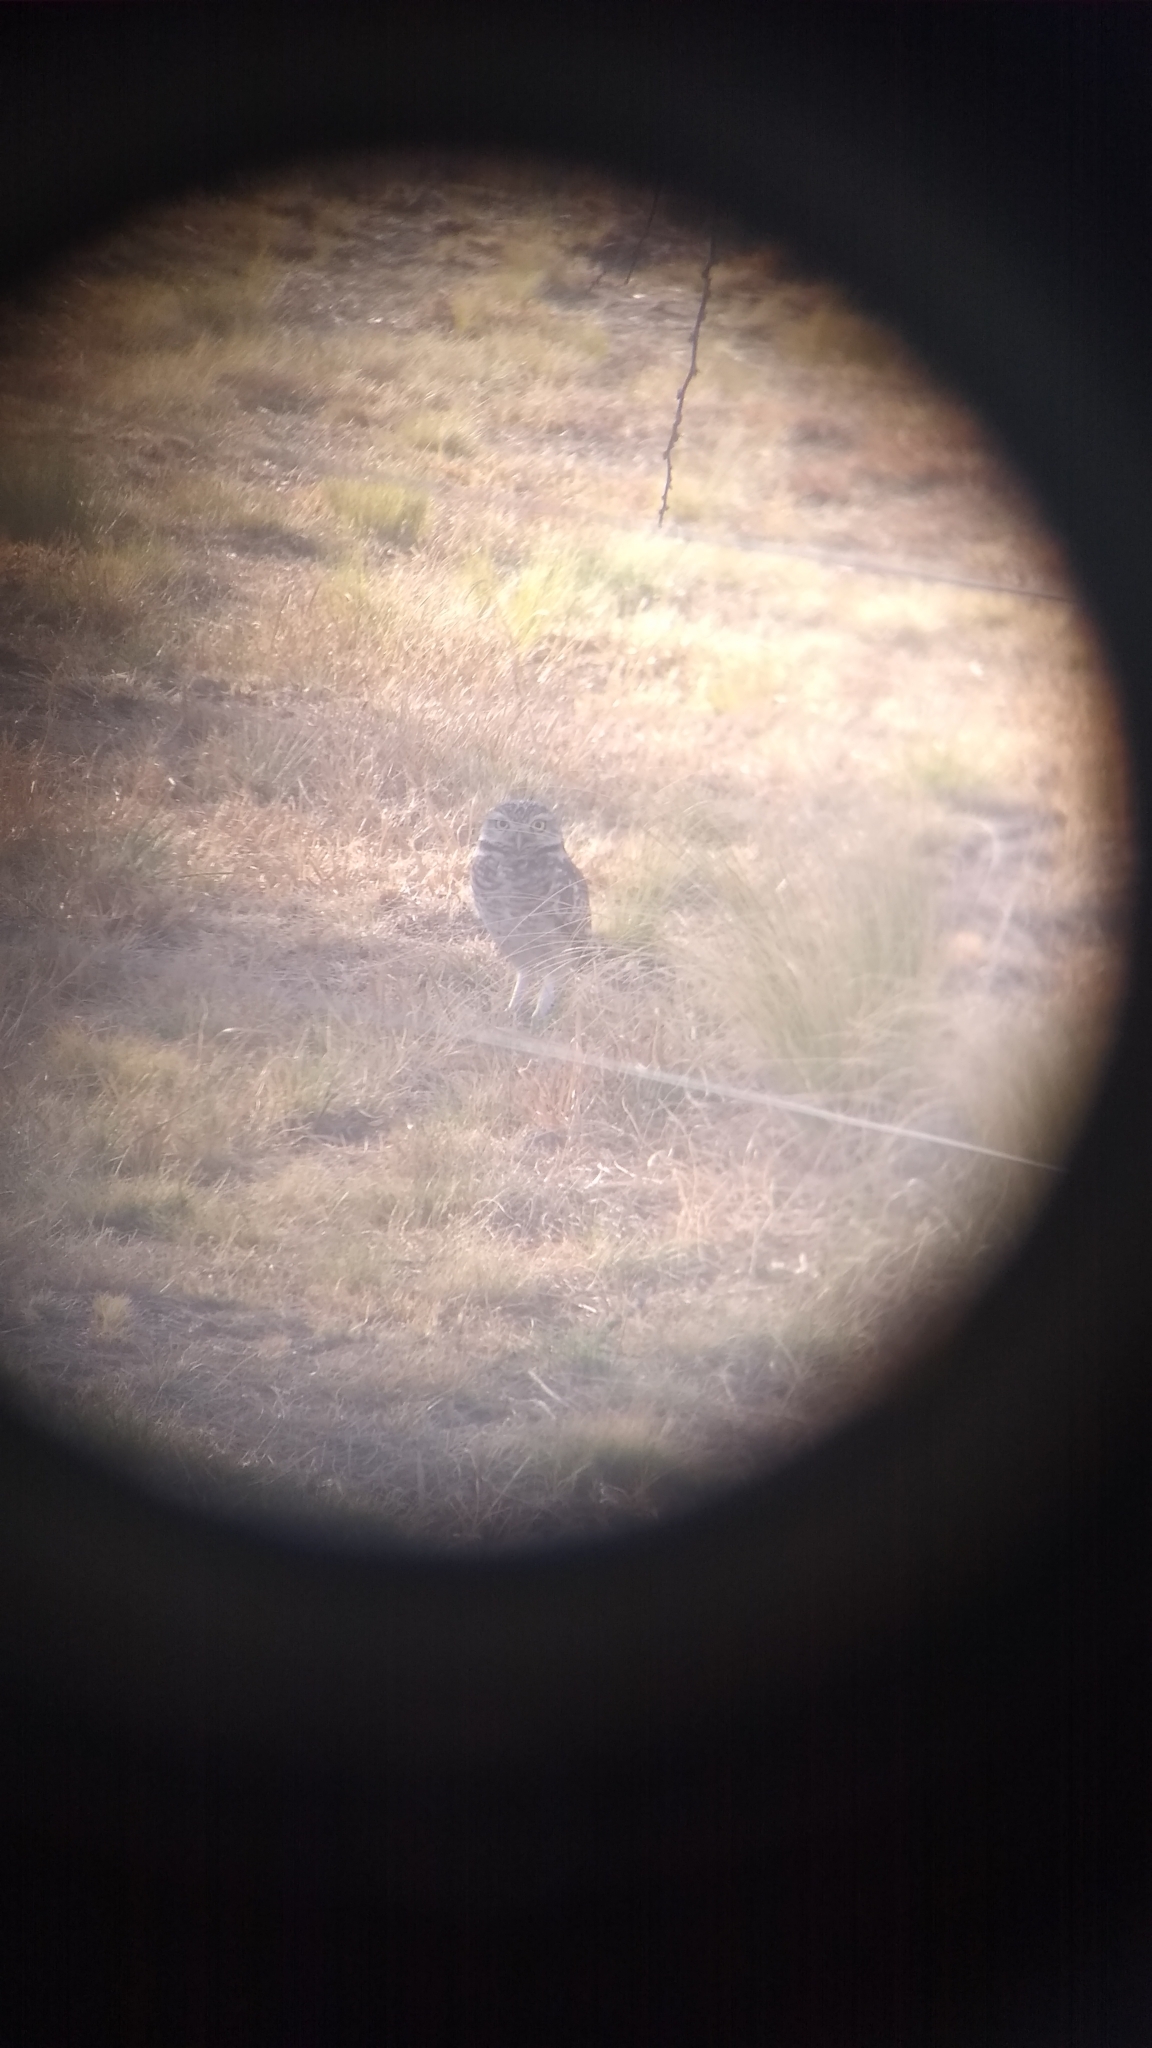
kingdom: Animalia
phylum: Chordata
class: Aves
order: Strigiformes
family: Strigidae
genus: Athene
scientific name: Athene cunicularia
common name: Burrowing owl
